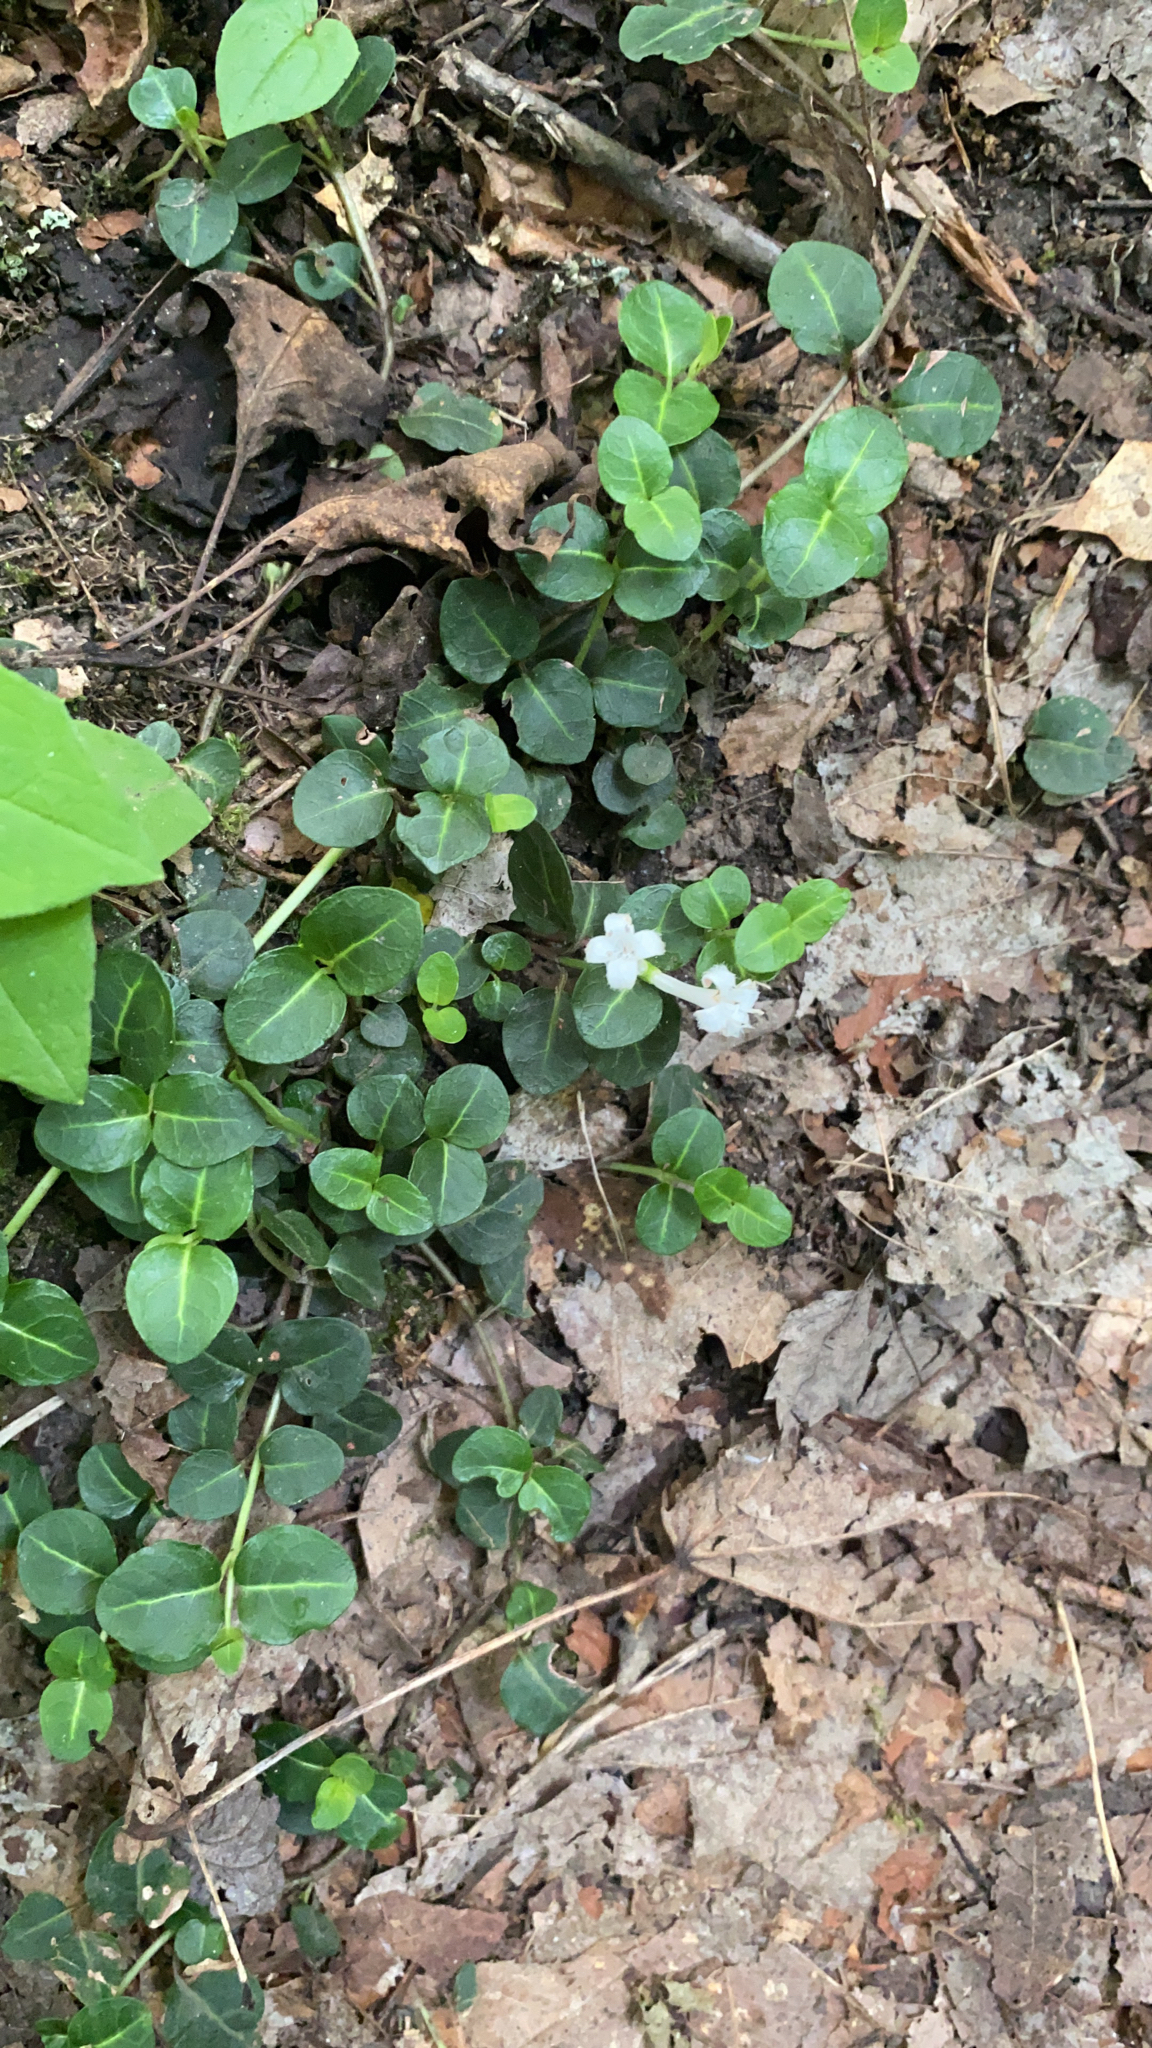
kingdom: Plantae
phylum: Tracheophyta
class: Magnoliopsida
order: Gentianales
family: Rubiaceae
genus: Mitchella
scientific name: Mitchella repens
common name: Partridge-berry
